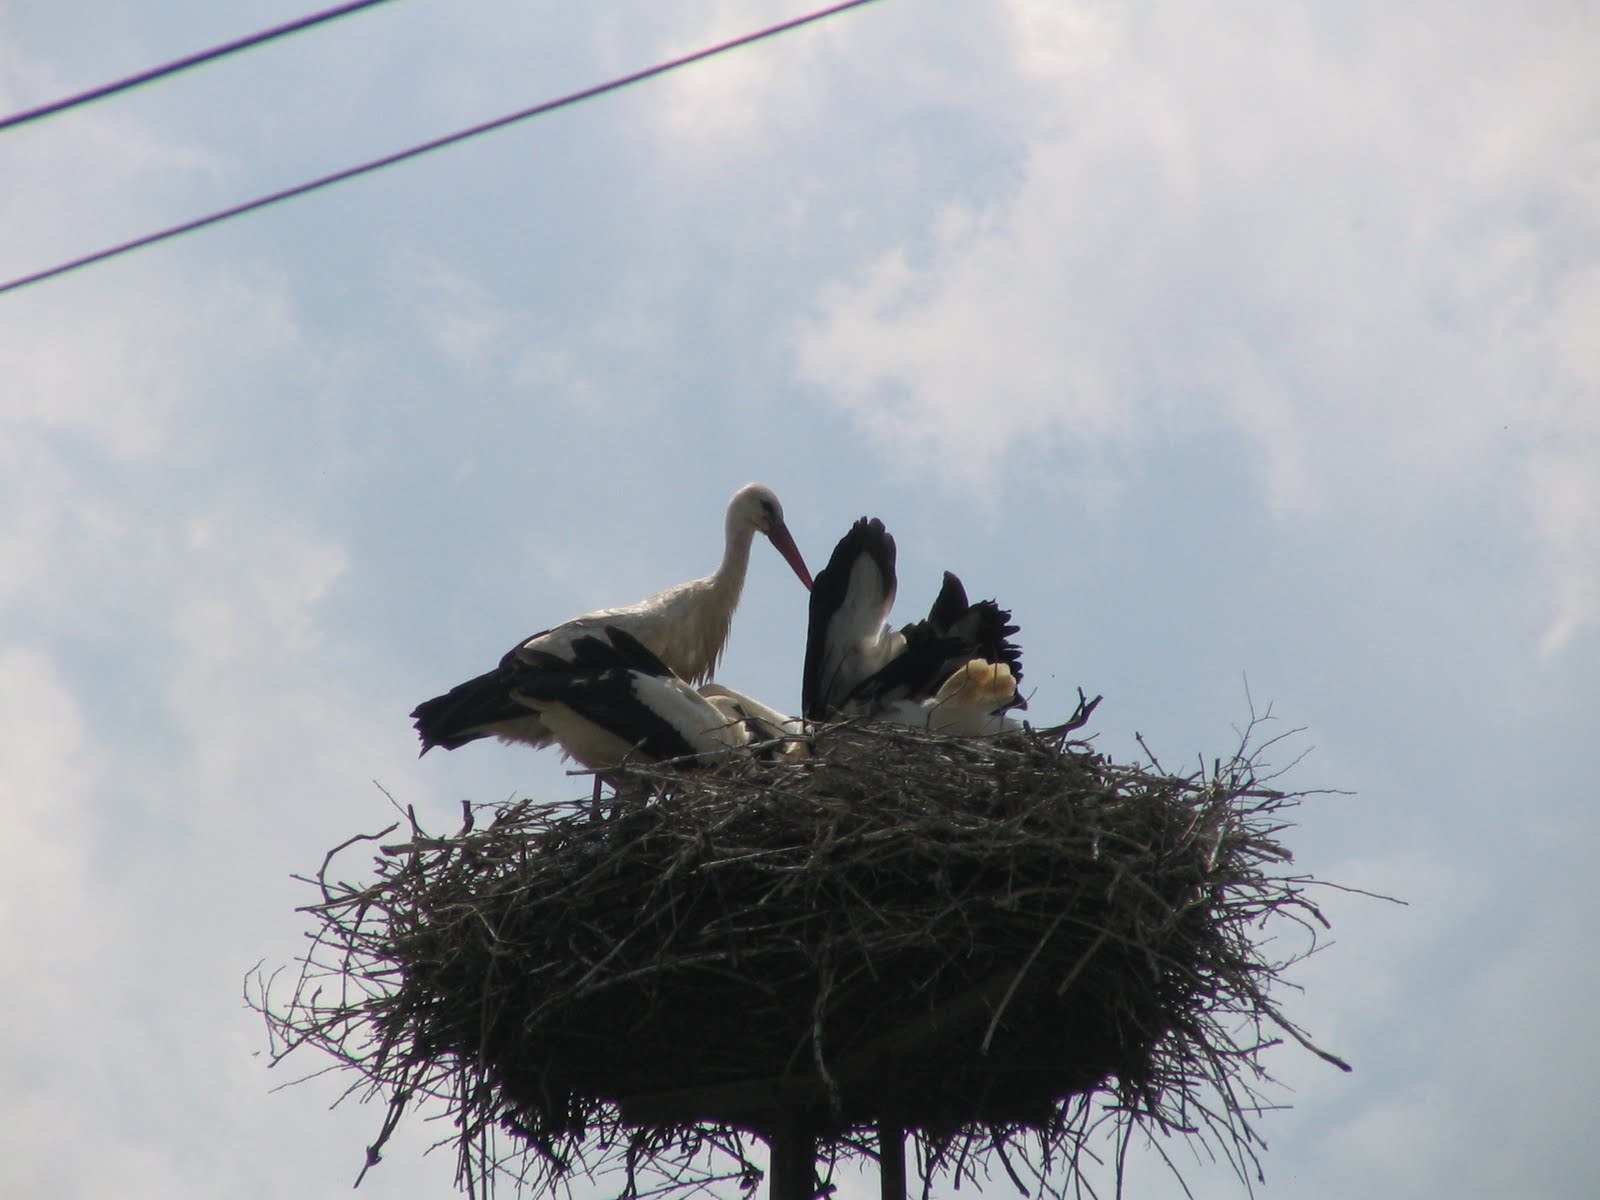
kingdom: Animalia
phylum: Chordata
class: Aves
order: Ciconiiformes
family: Ciconiidae
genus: Ciconia
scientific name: Ciconia ciconia
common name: White stork
